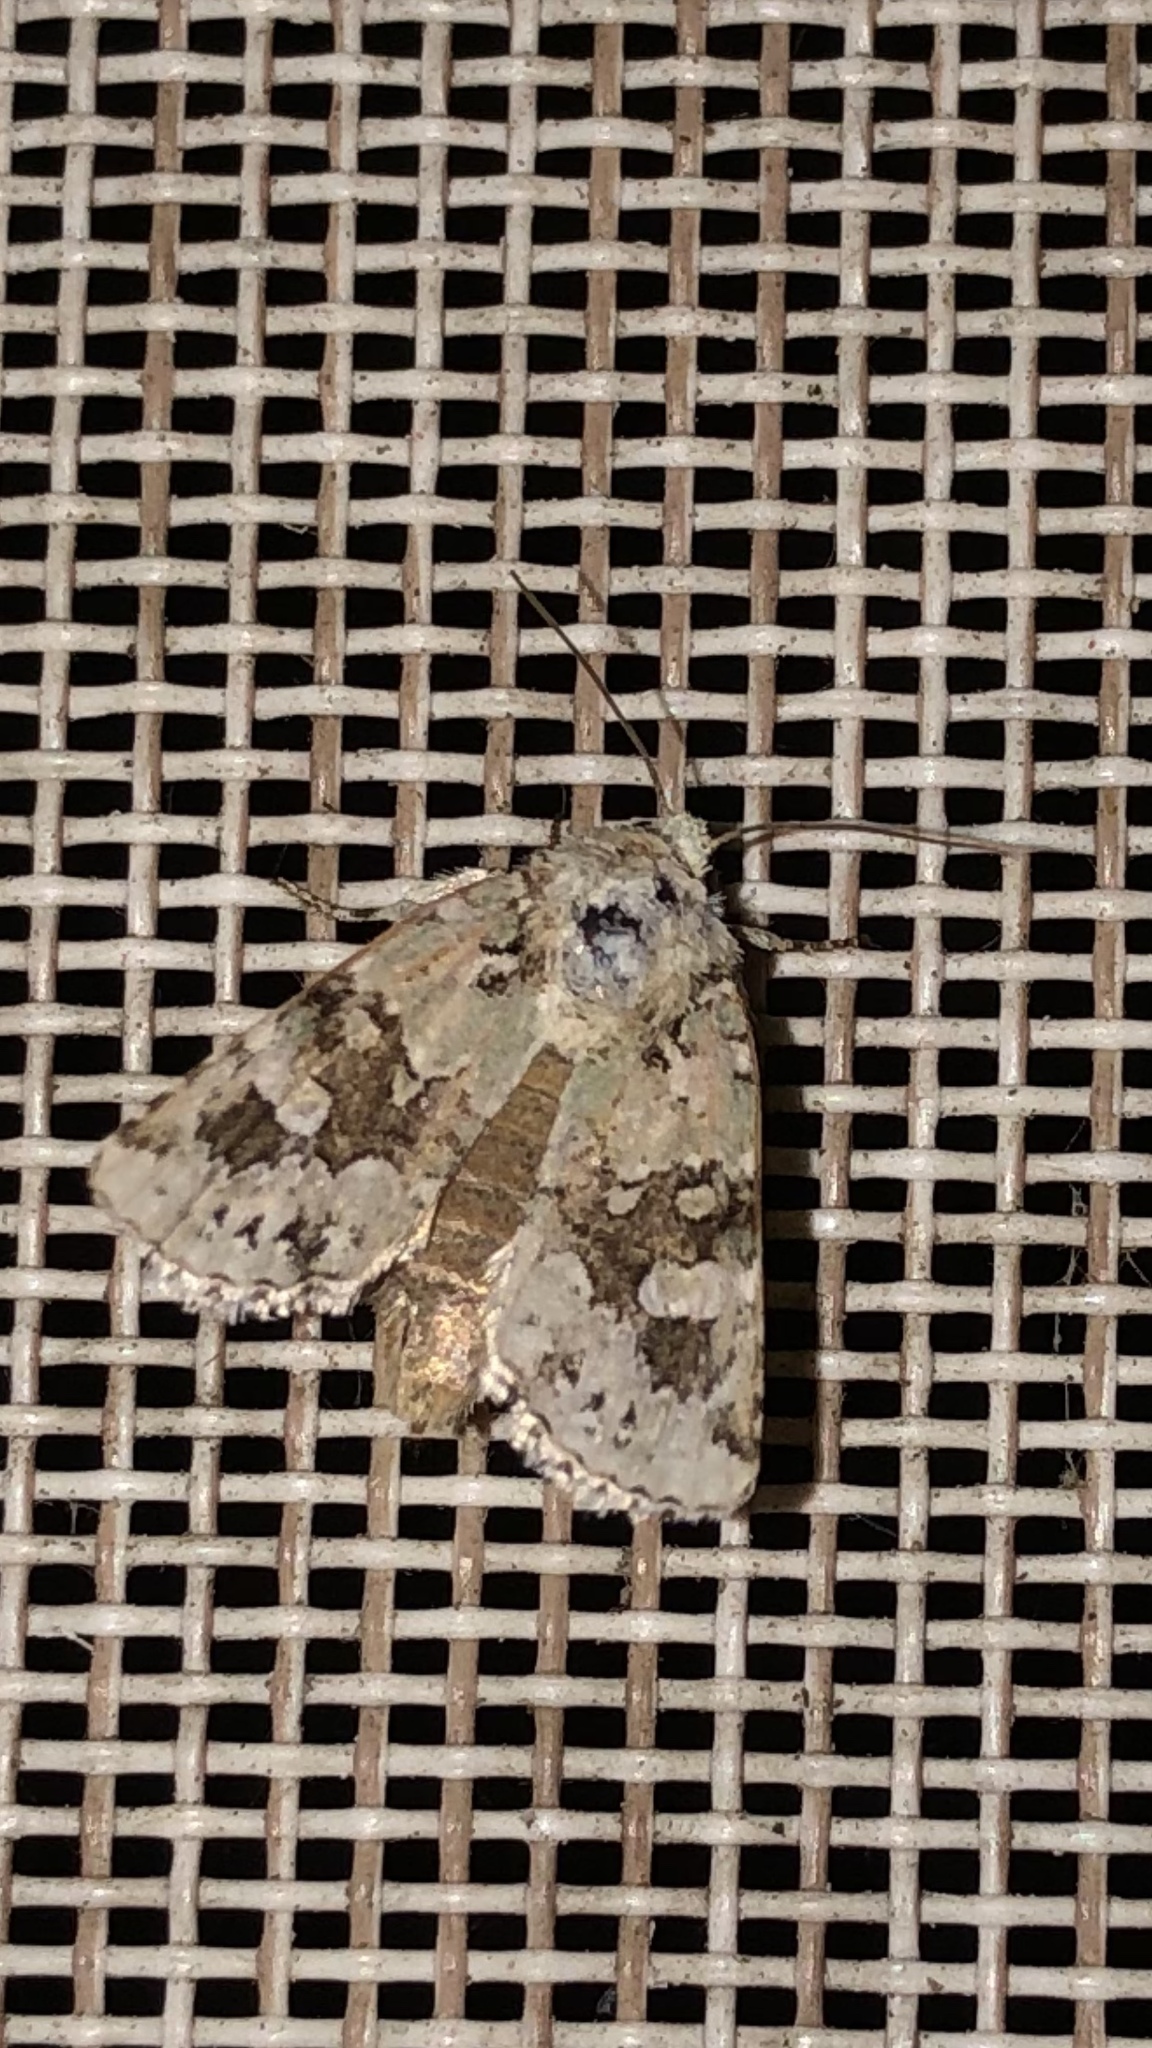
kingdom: Animalia
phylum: Arthropoda
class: Insecta
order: Lepidoptera
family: Noctuidae
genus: Lacinipolia
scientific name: Lacinipolia implicata
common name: Implicit arches
